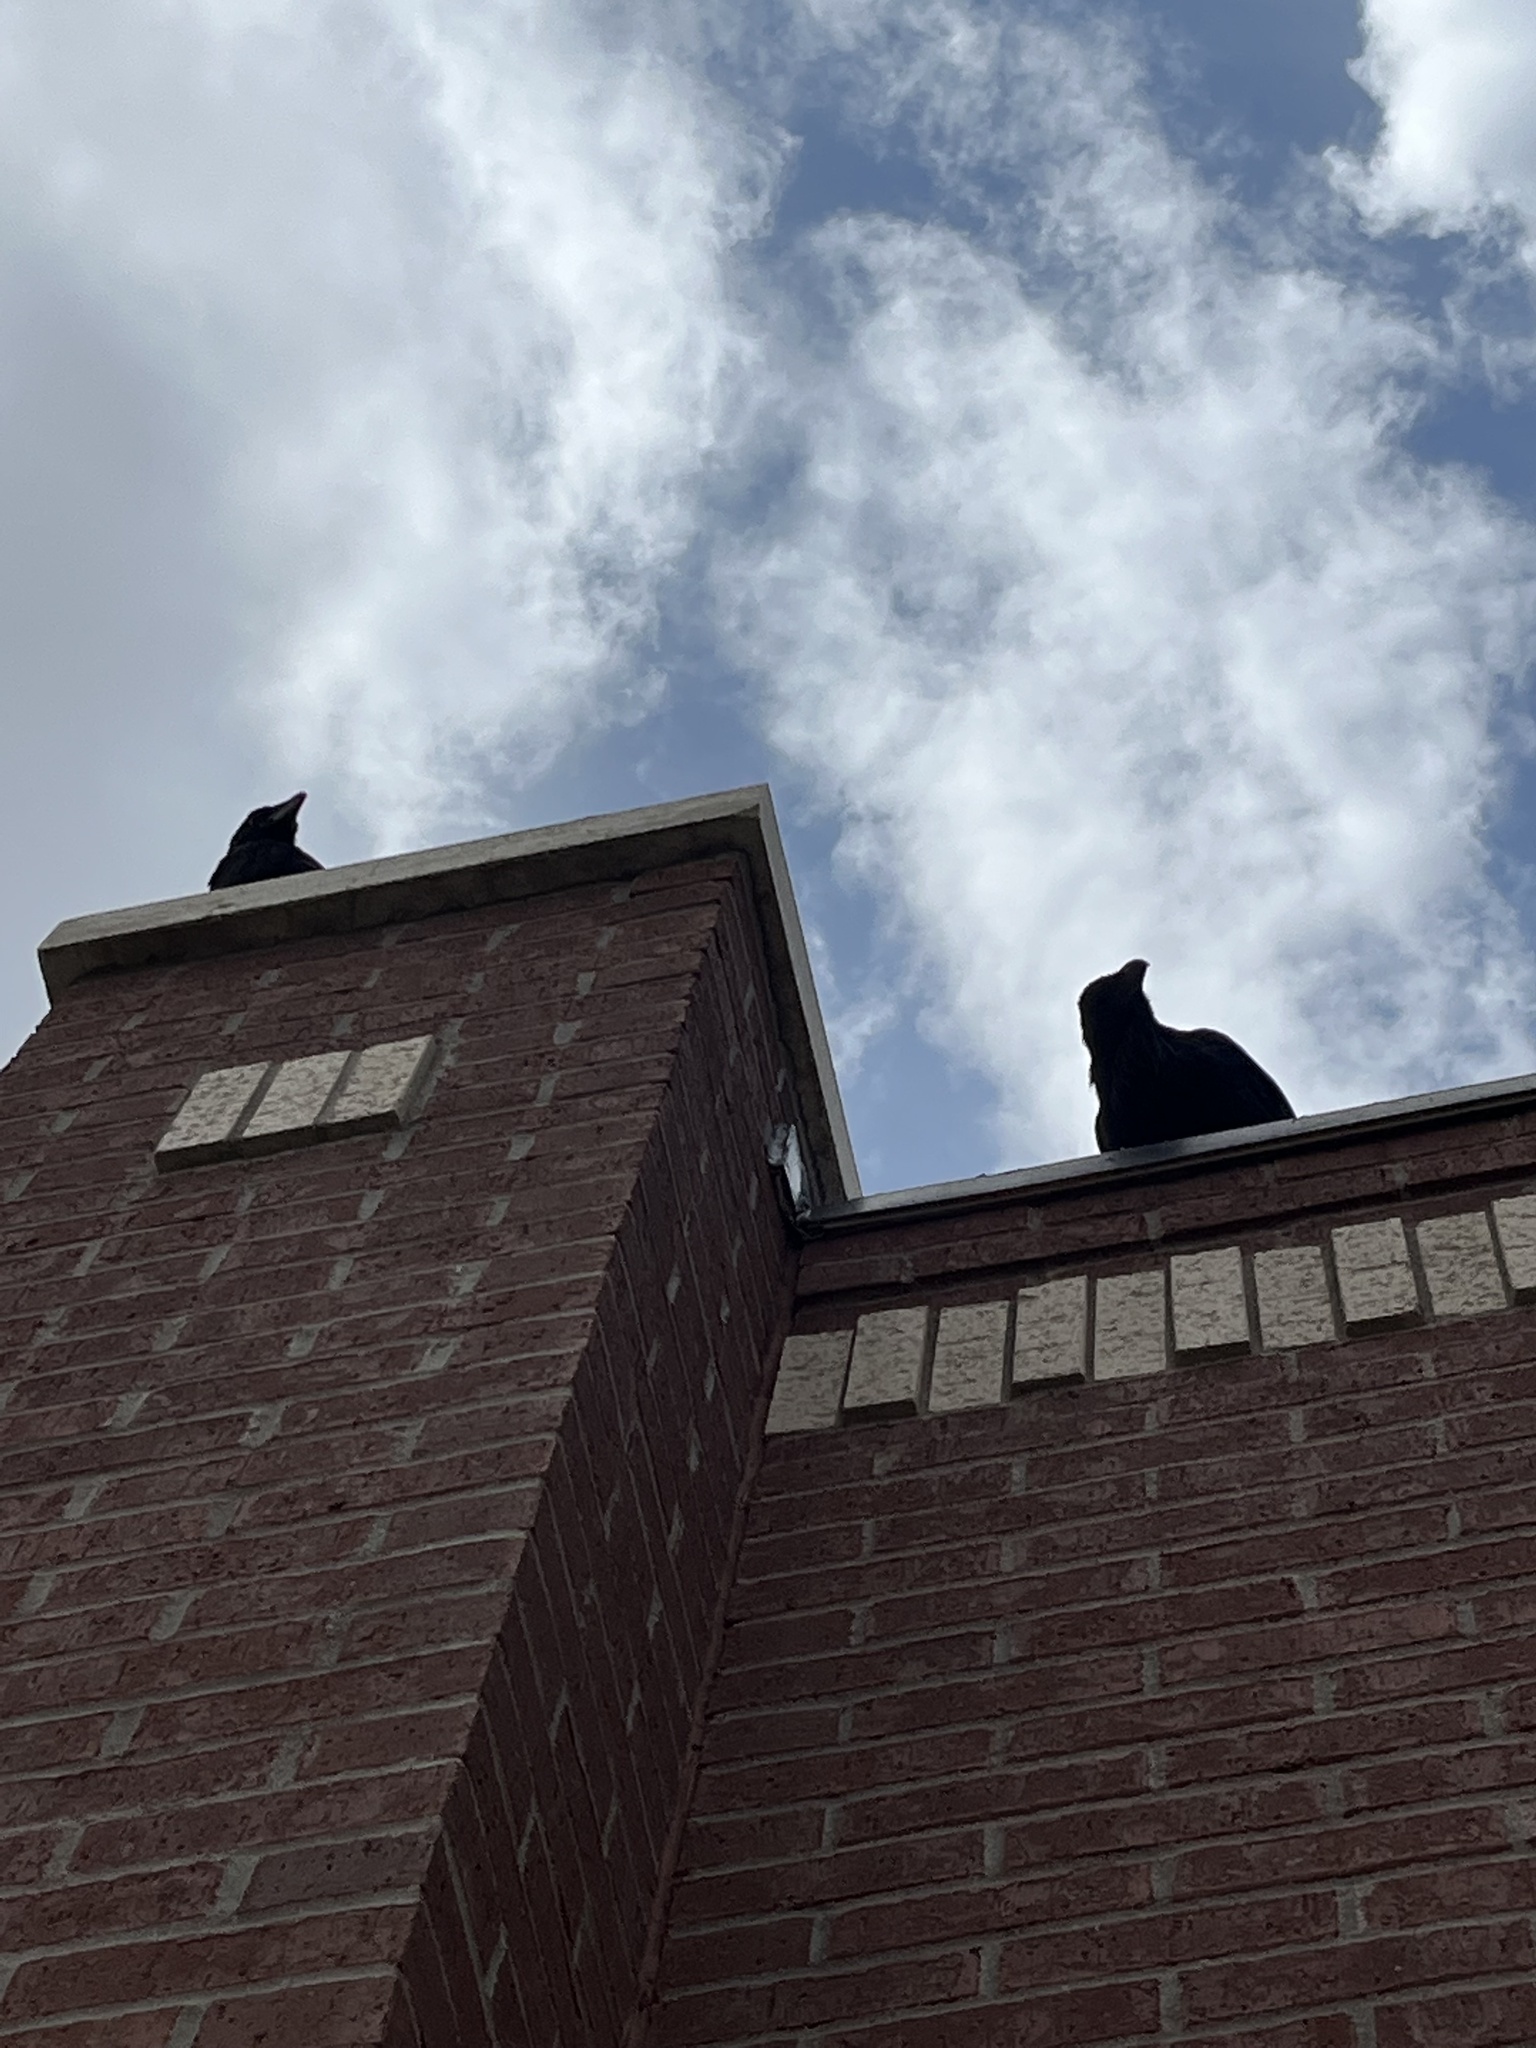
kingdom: Animalia
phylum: Chordata
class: Aves
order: Passeriformes
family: Corvidae
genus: Corvus
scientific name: Corvus corax
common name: Common raven
